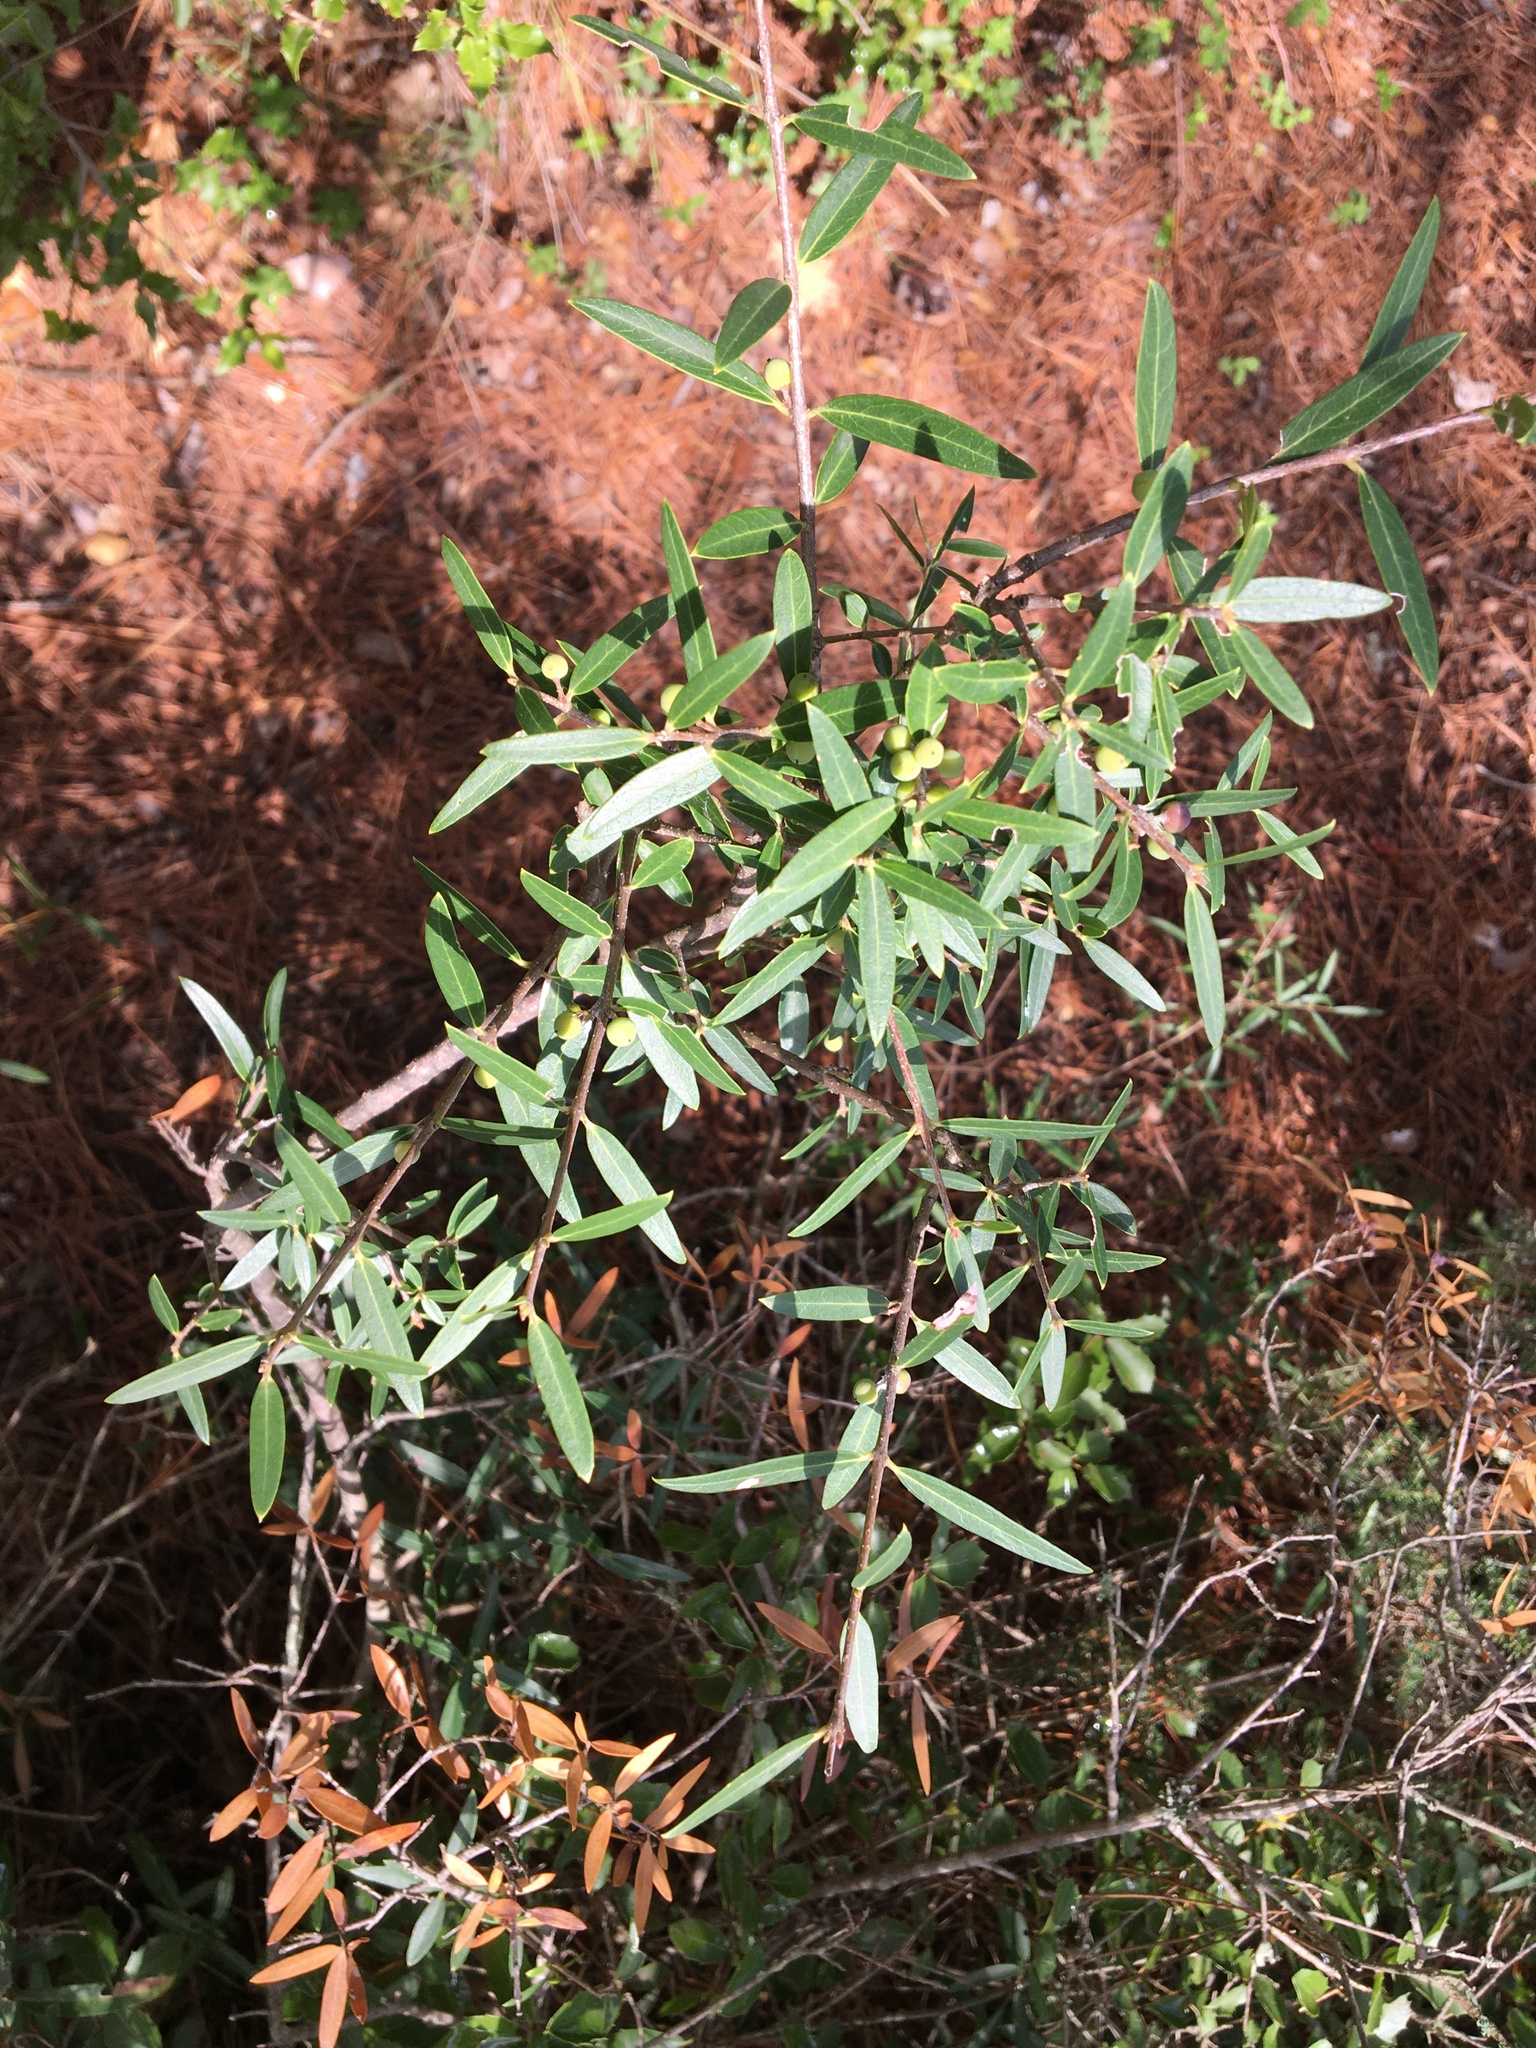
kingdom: Plantae
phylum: Tracheophyta
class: Magnoliopsida
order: Lamiales
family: Oleaceae
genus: Phillyrea
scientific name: Phillyrea angustifolia
